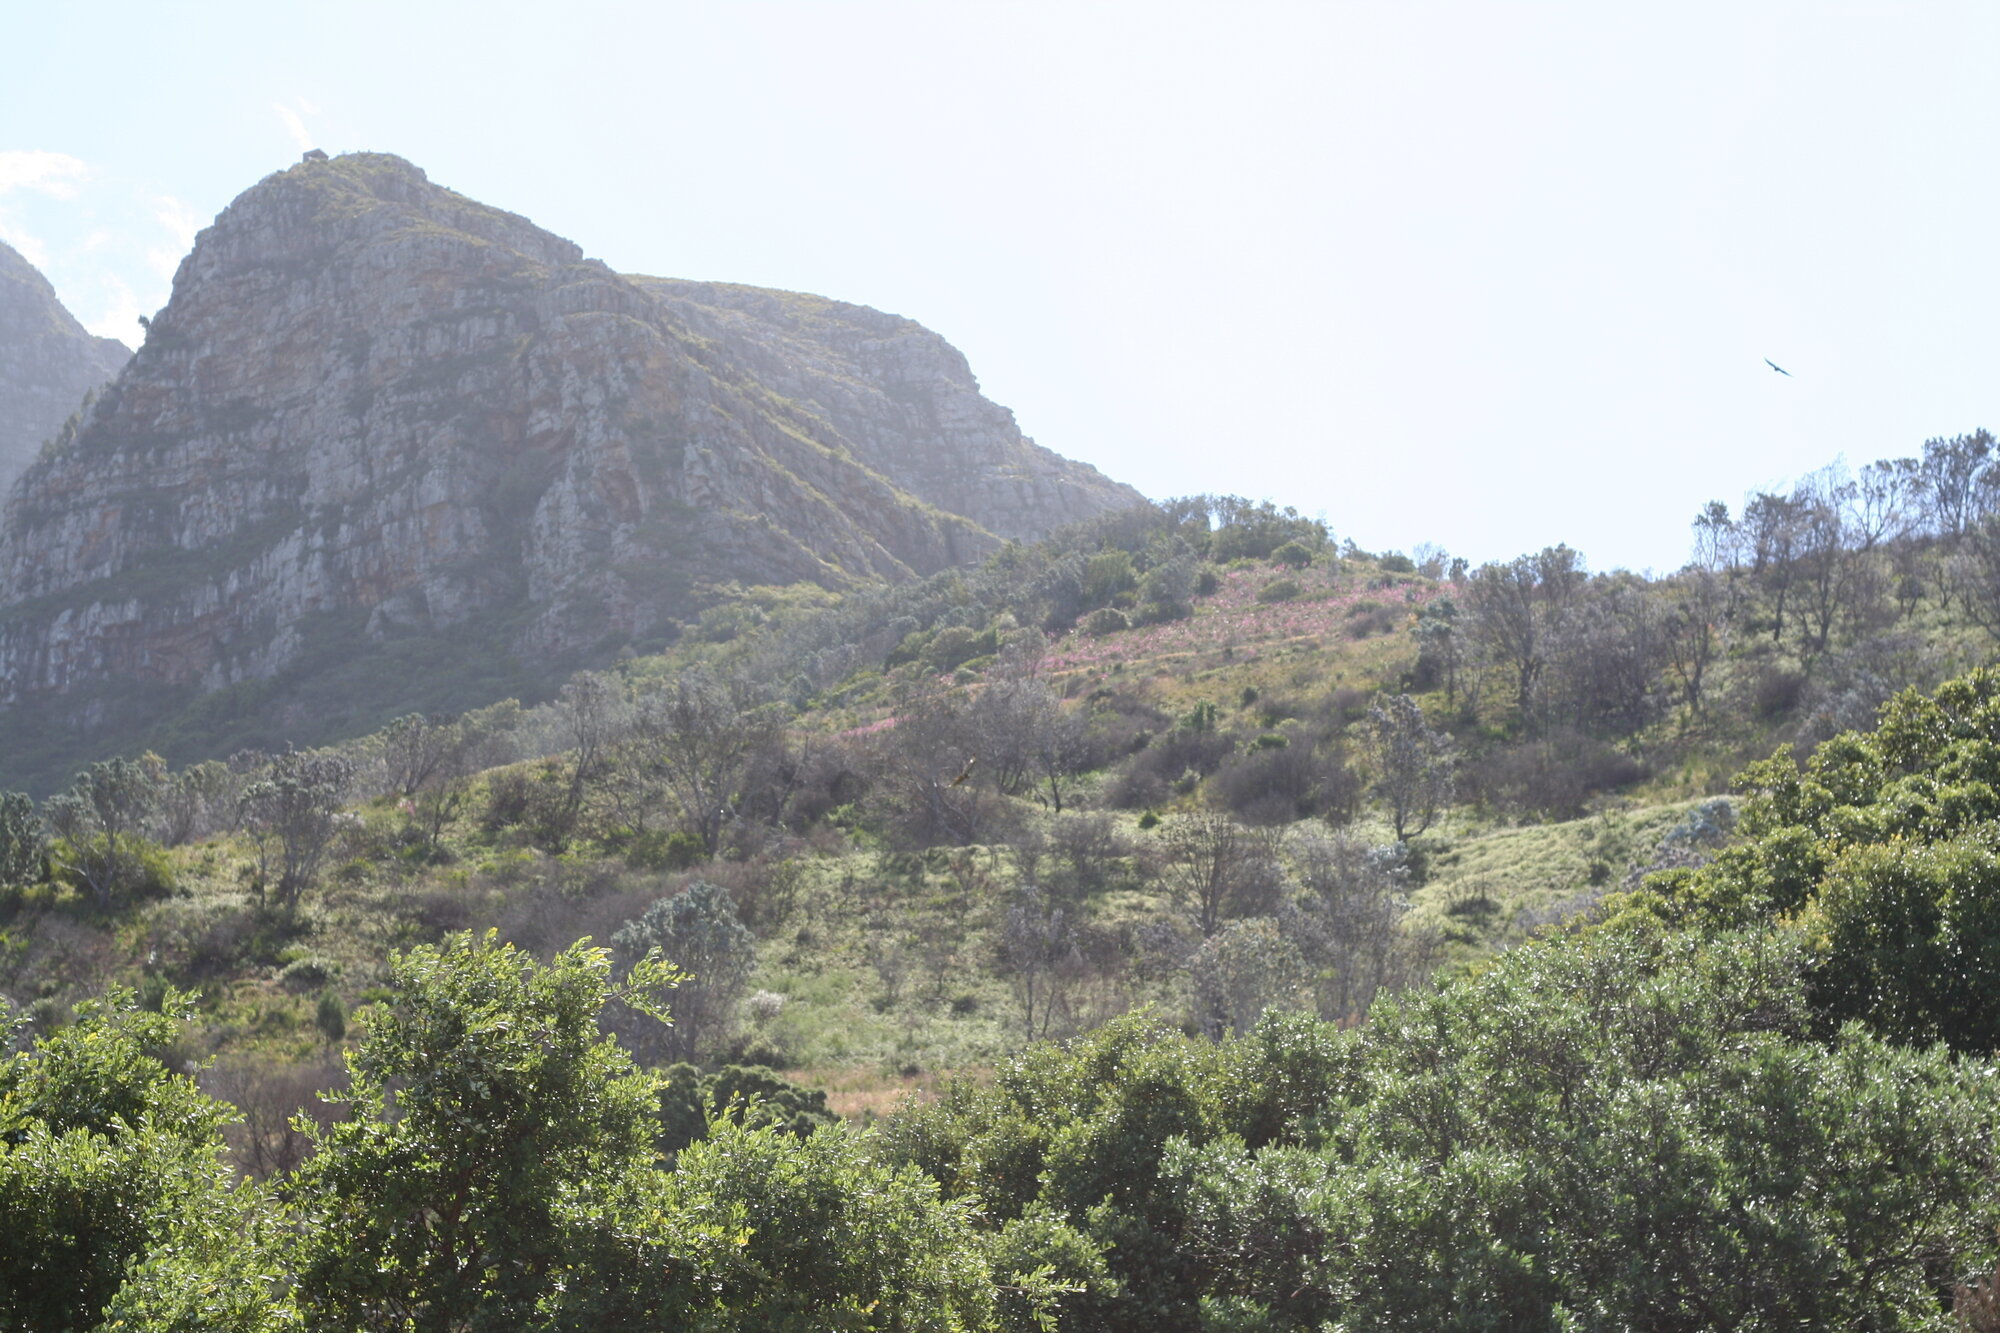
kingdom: Animalia
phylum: Chordata
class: Aves
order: Accipitriformes
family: Accipitridae
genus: Buteo
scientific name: Buteo buteo
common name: Common buzzard
